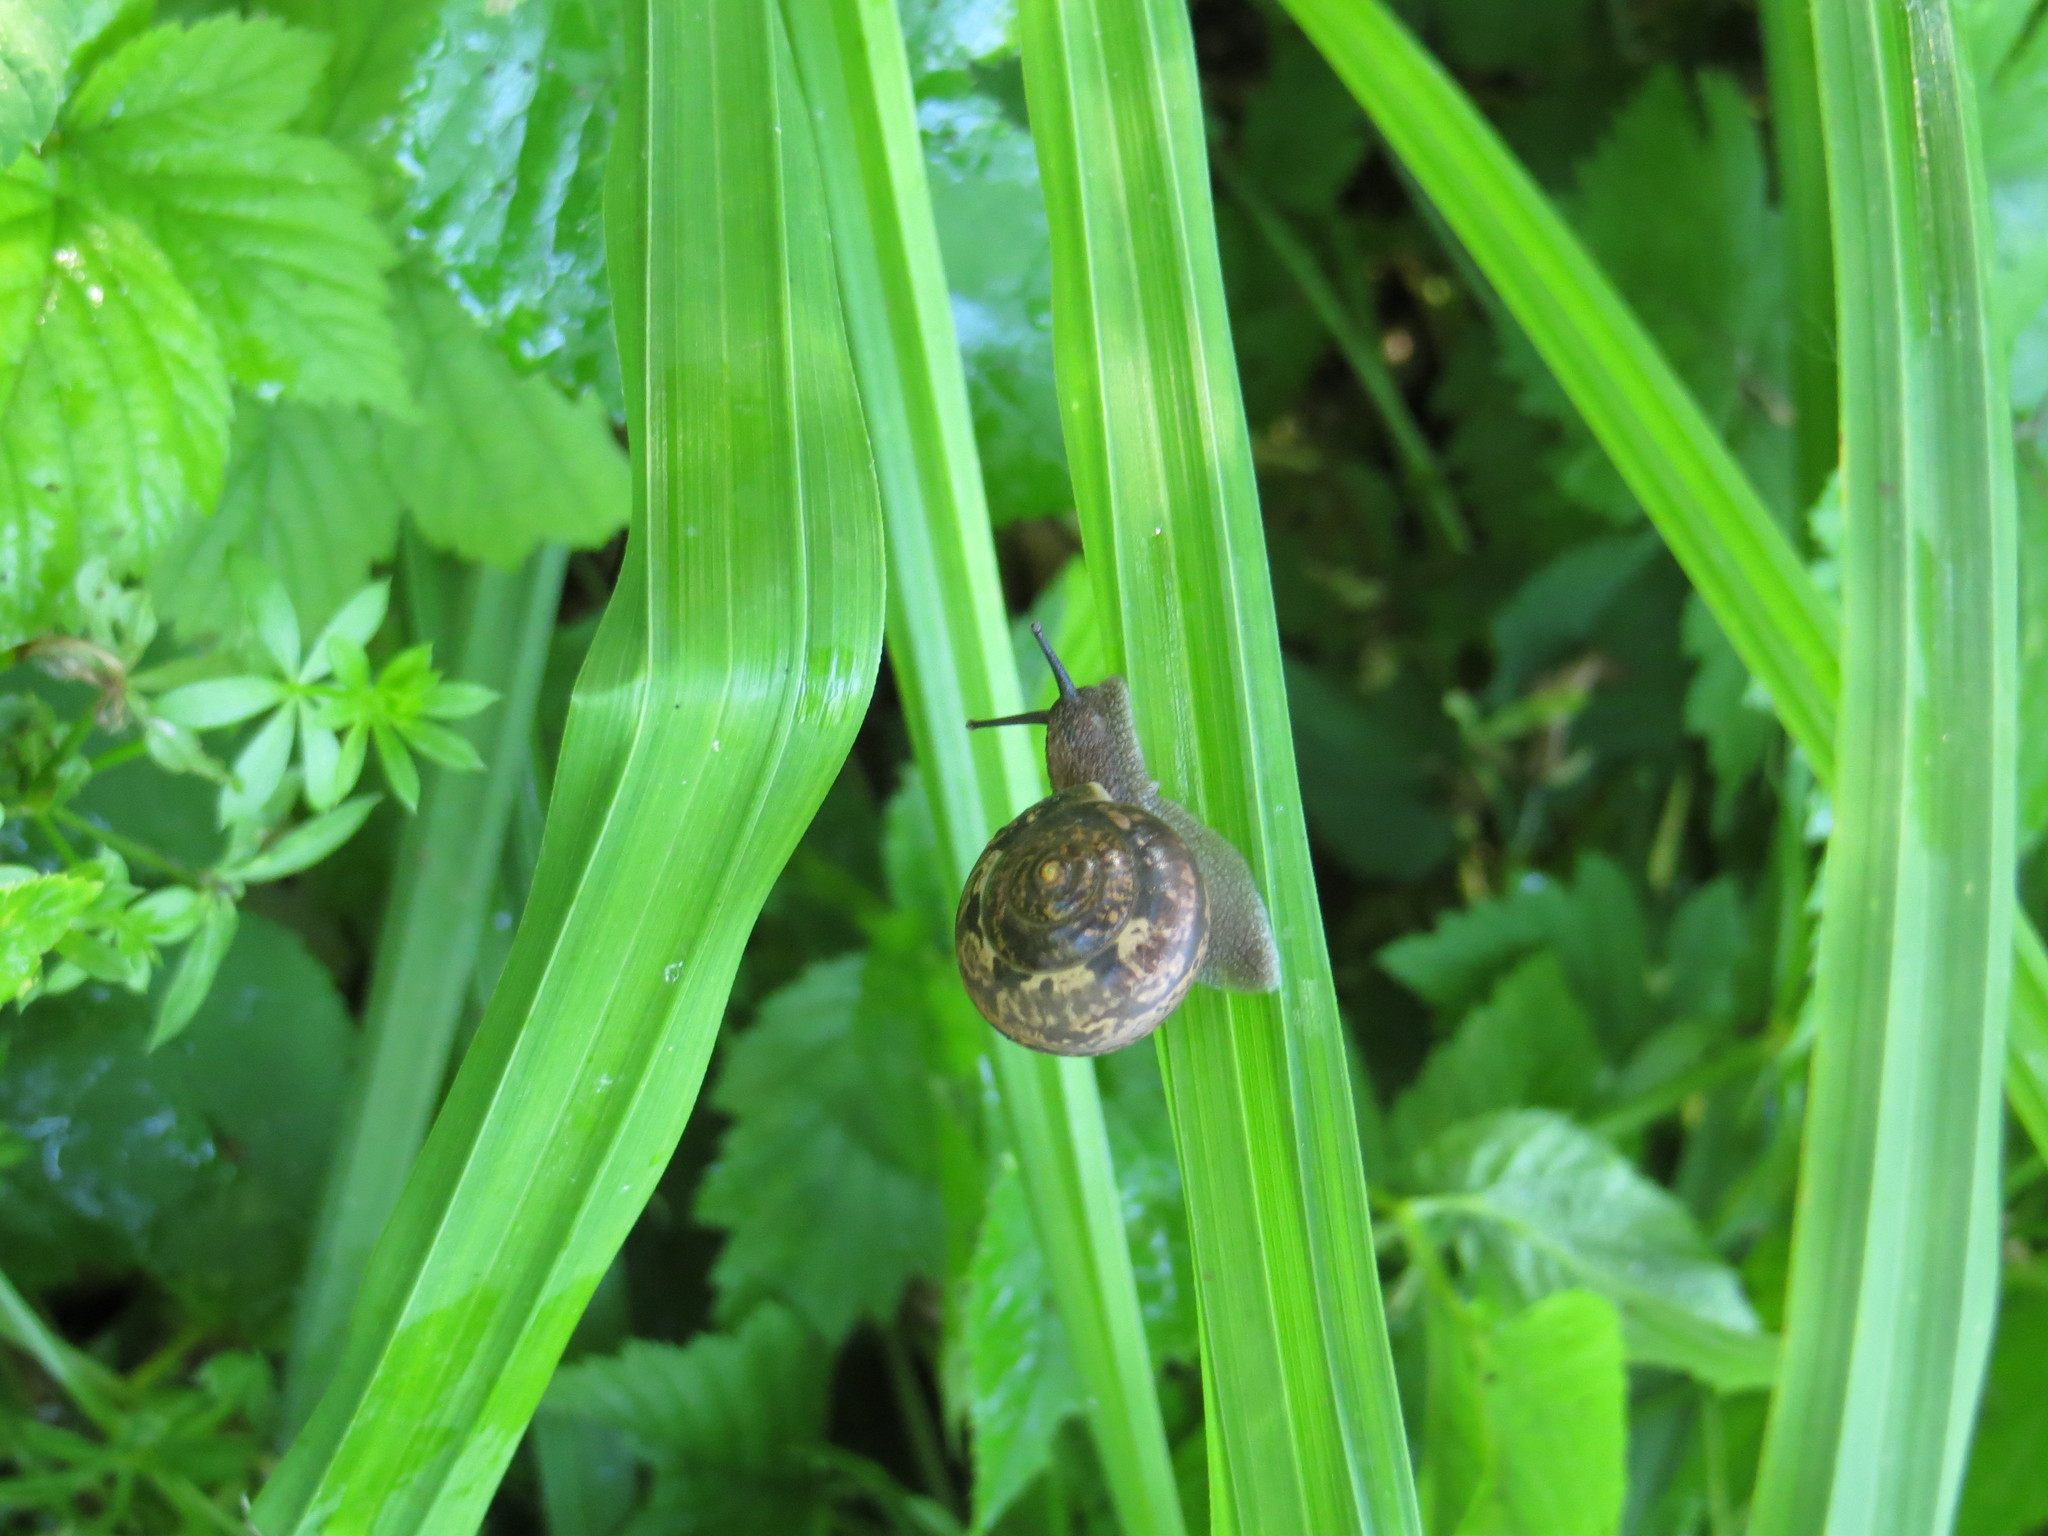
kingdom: Animalia
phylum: Mollusca
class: Gastropoda
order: Stylommatophora
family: Camaenidae
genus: Fruticicola
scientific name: Fruticicola fruticum
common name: Bush snail
